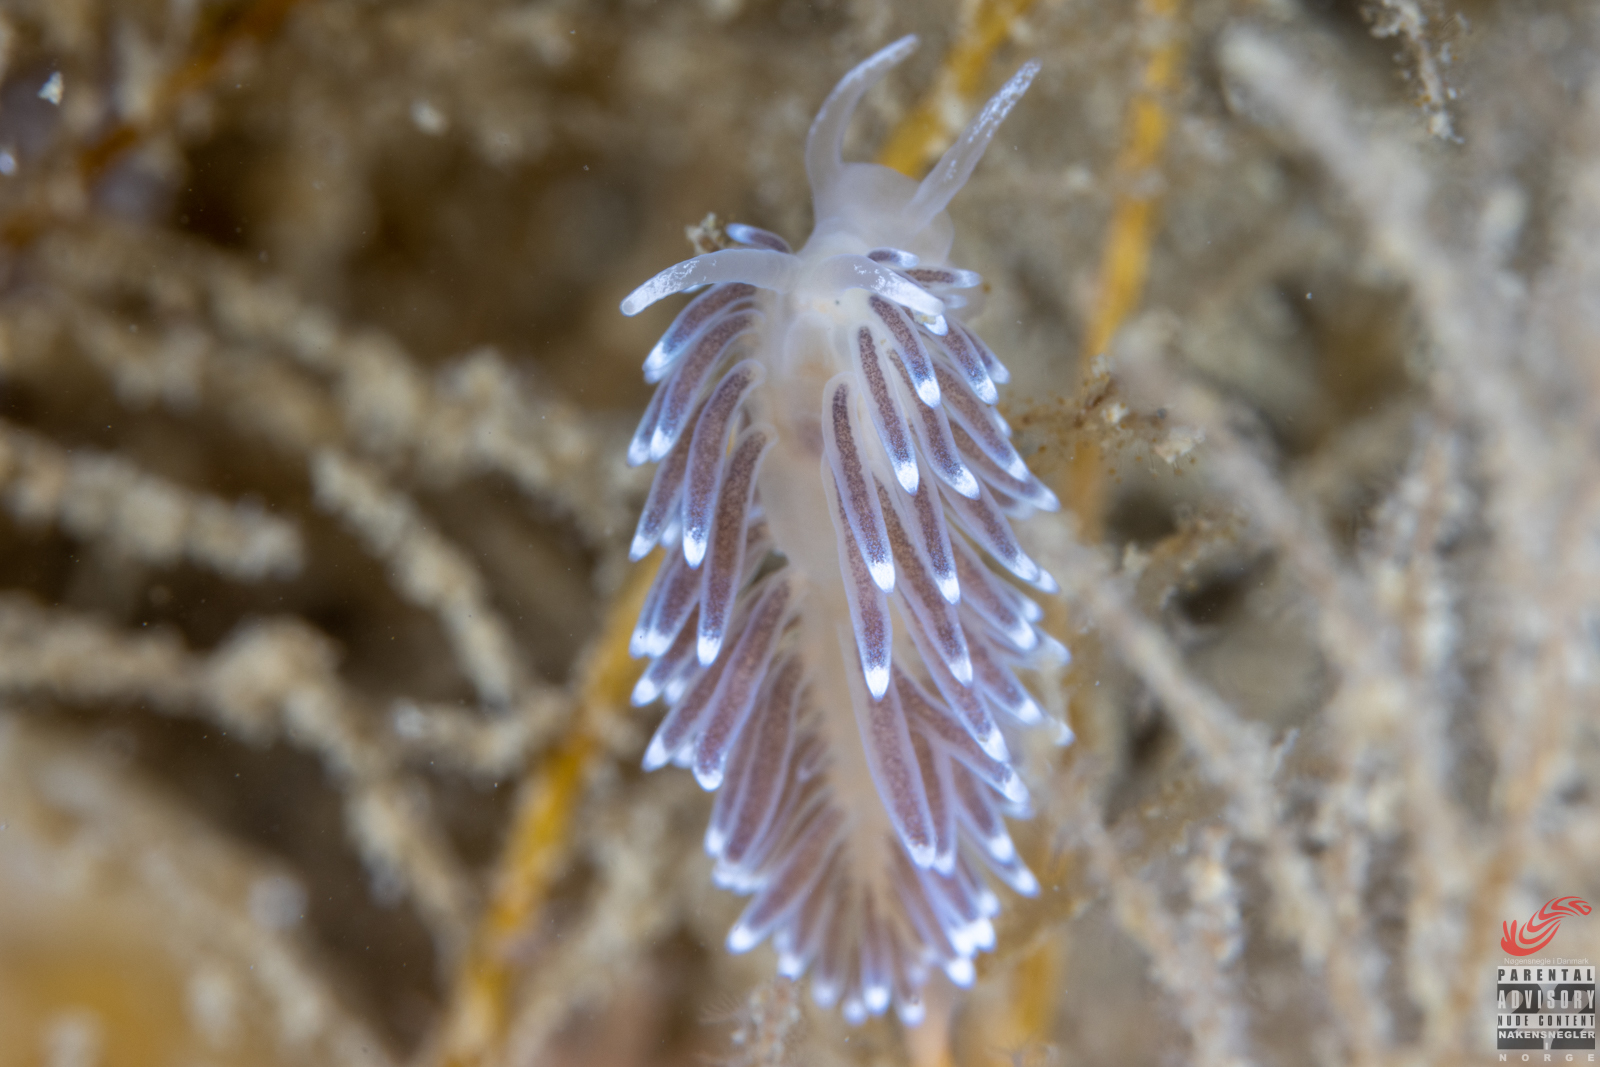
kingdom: Animalia
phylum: Mollusca
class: Gastropoda
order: Nudibranchia
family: Cuthonellidae
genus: Cuthonella
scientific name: Cuthonella concinna
